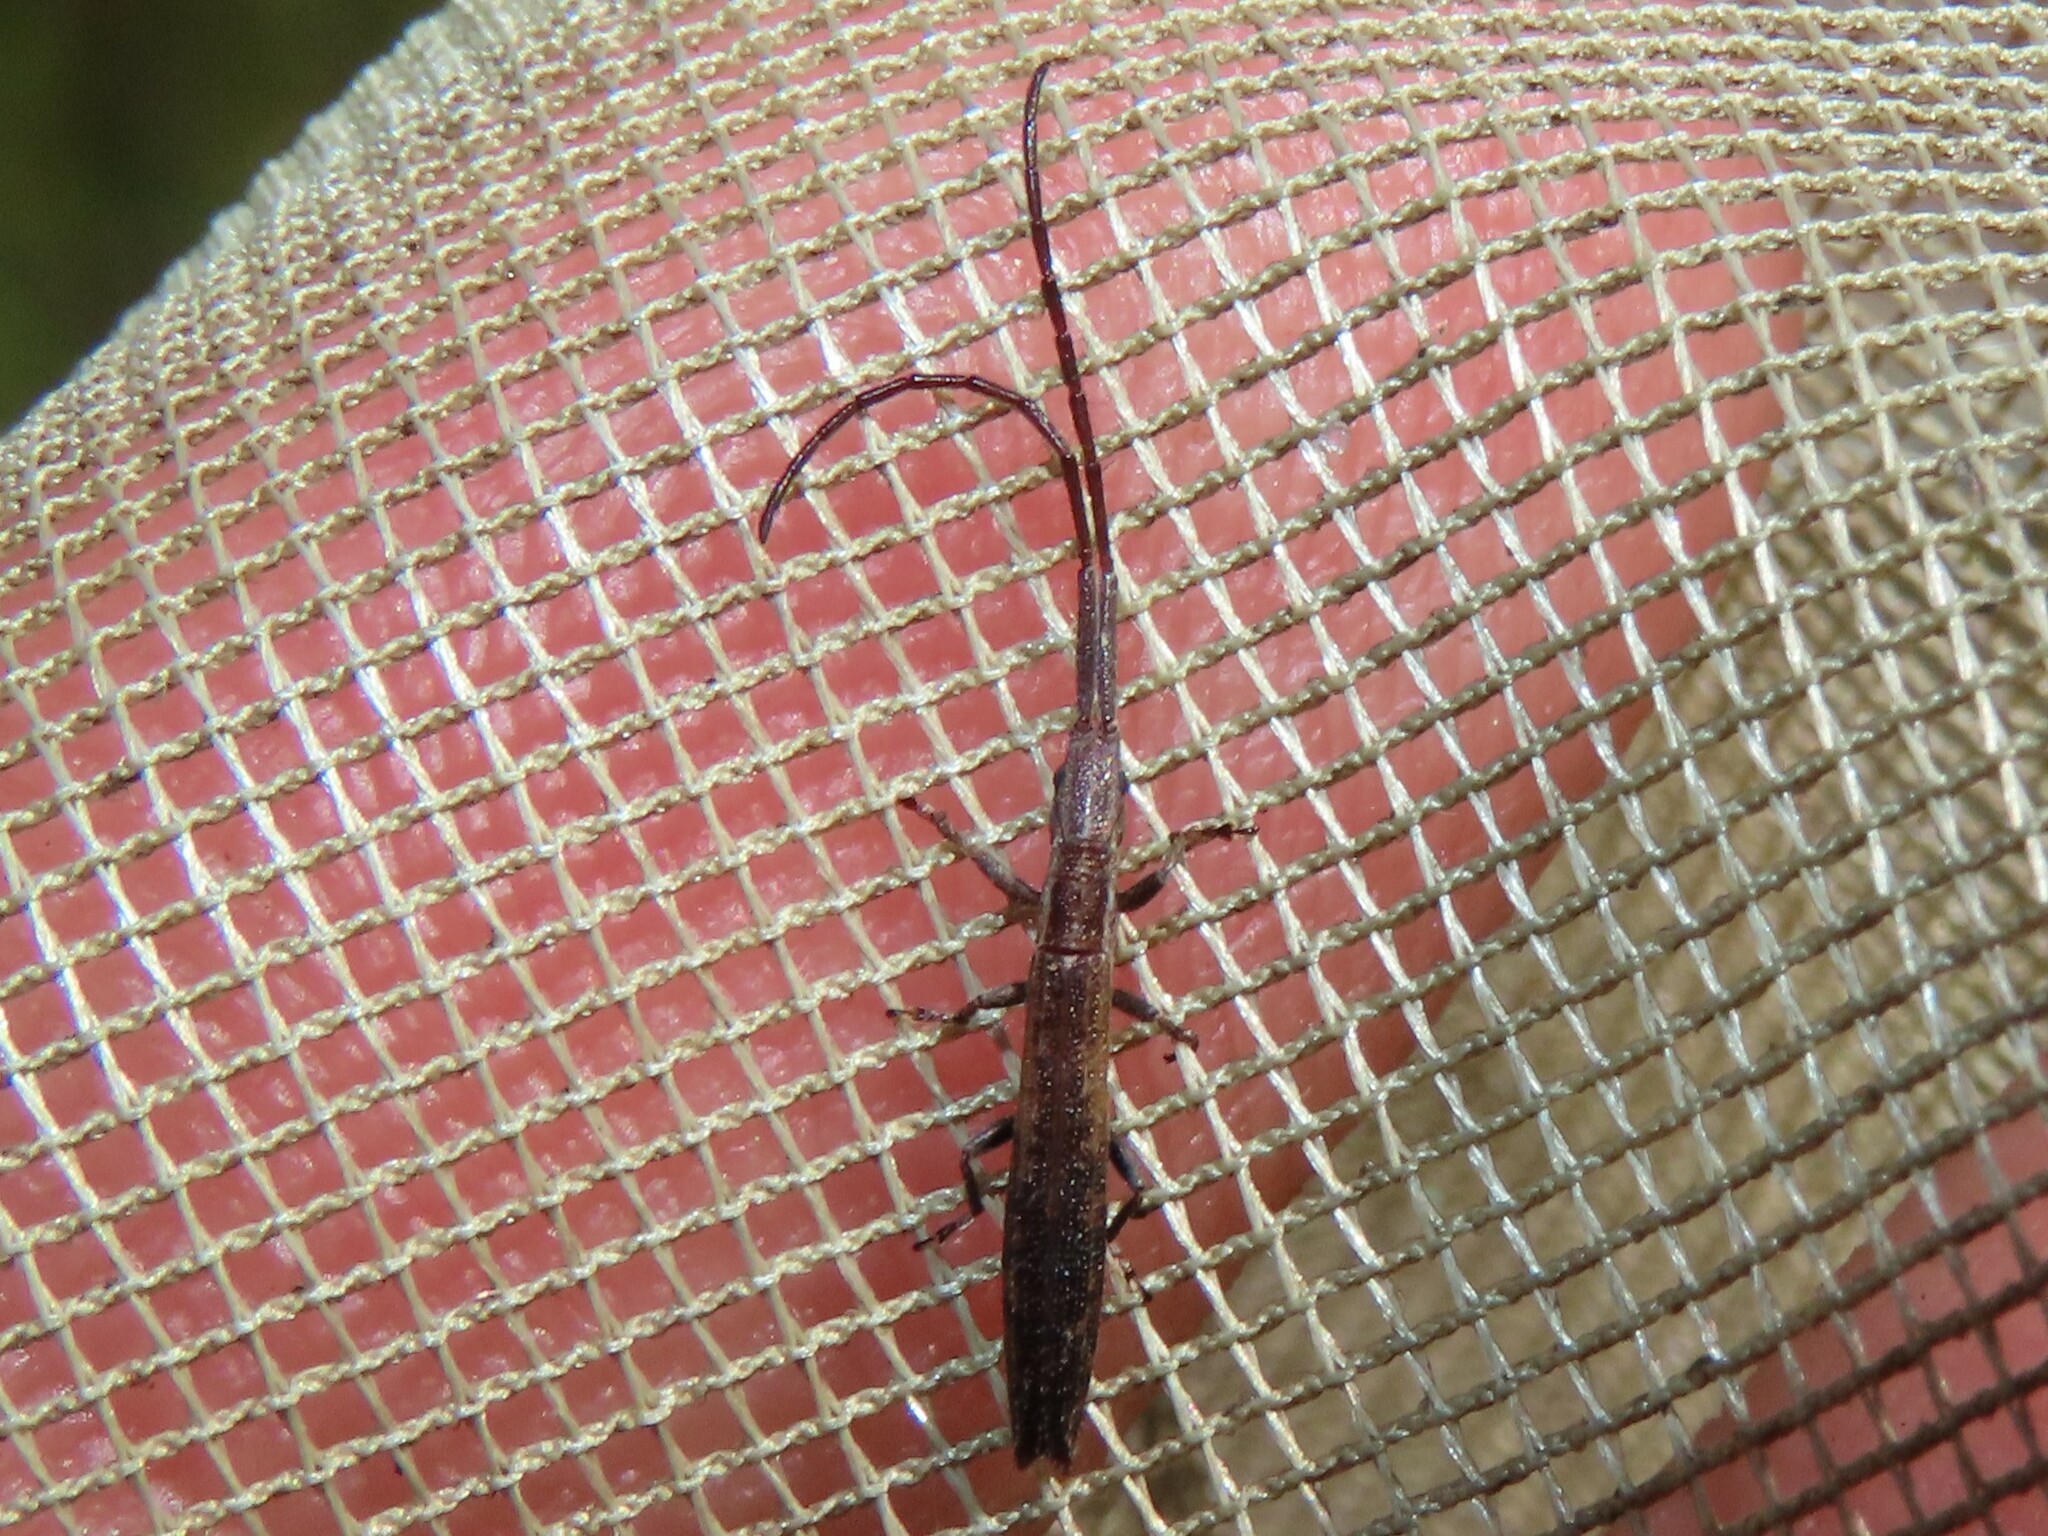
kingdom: Animalia
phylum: Arthropoda
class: Insecta
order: Coleoptera
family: Cerambycidae
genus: Spalacopsis
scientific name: Spalacopsis stolata
